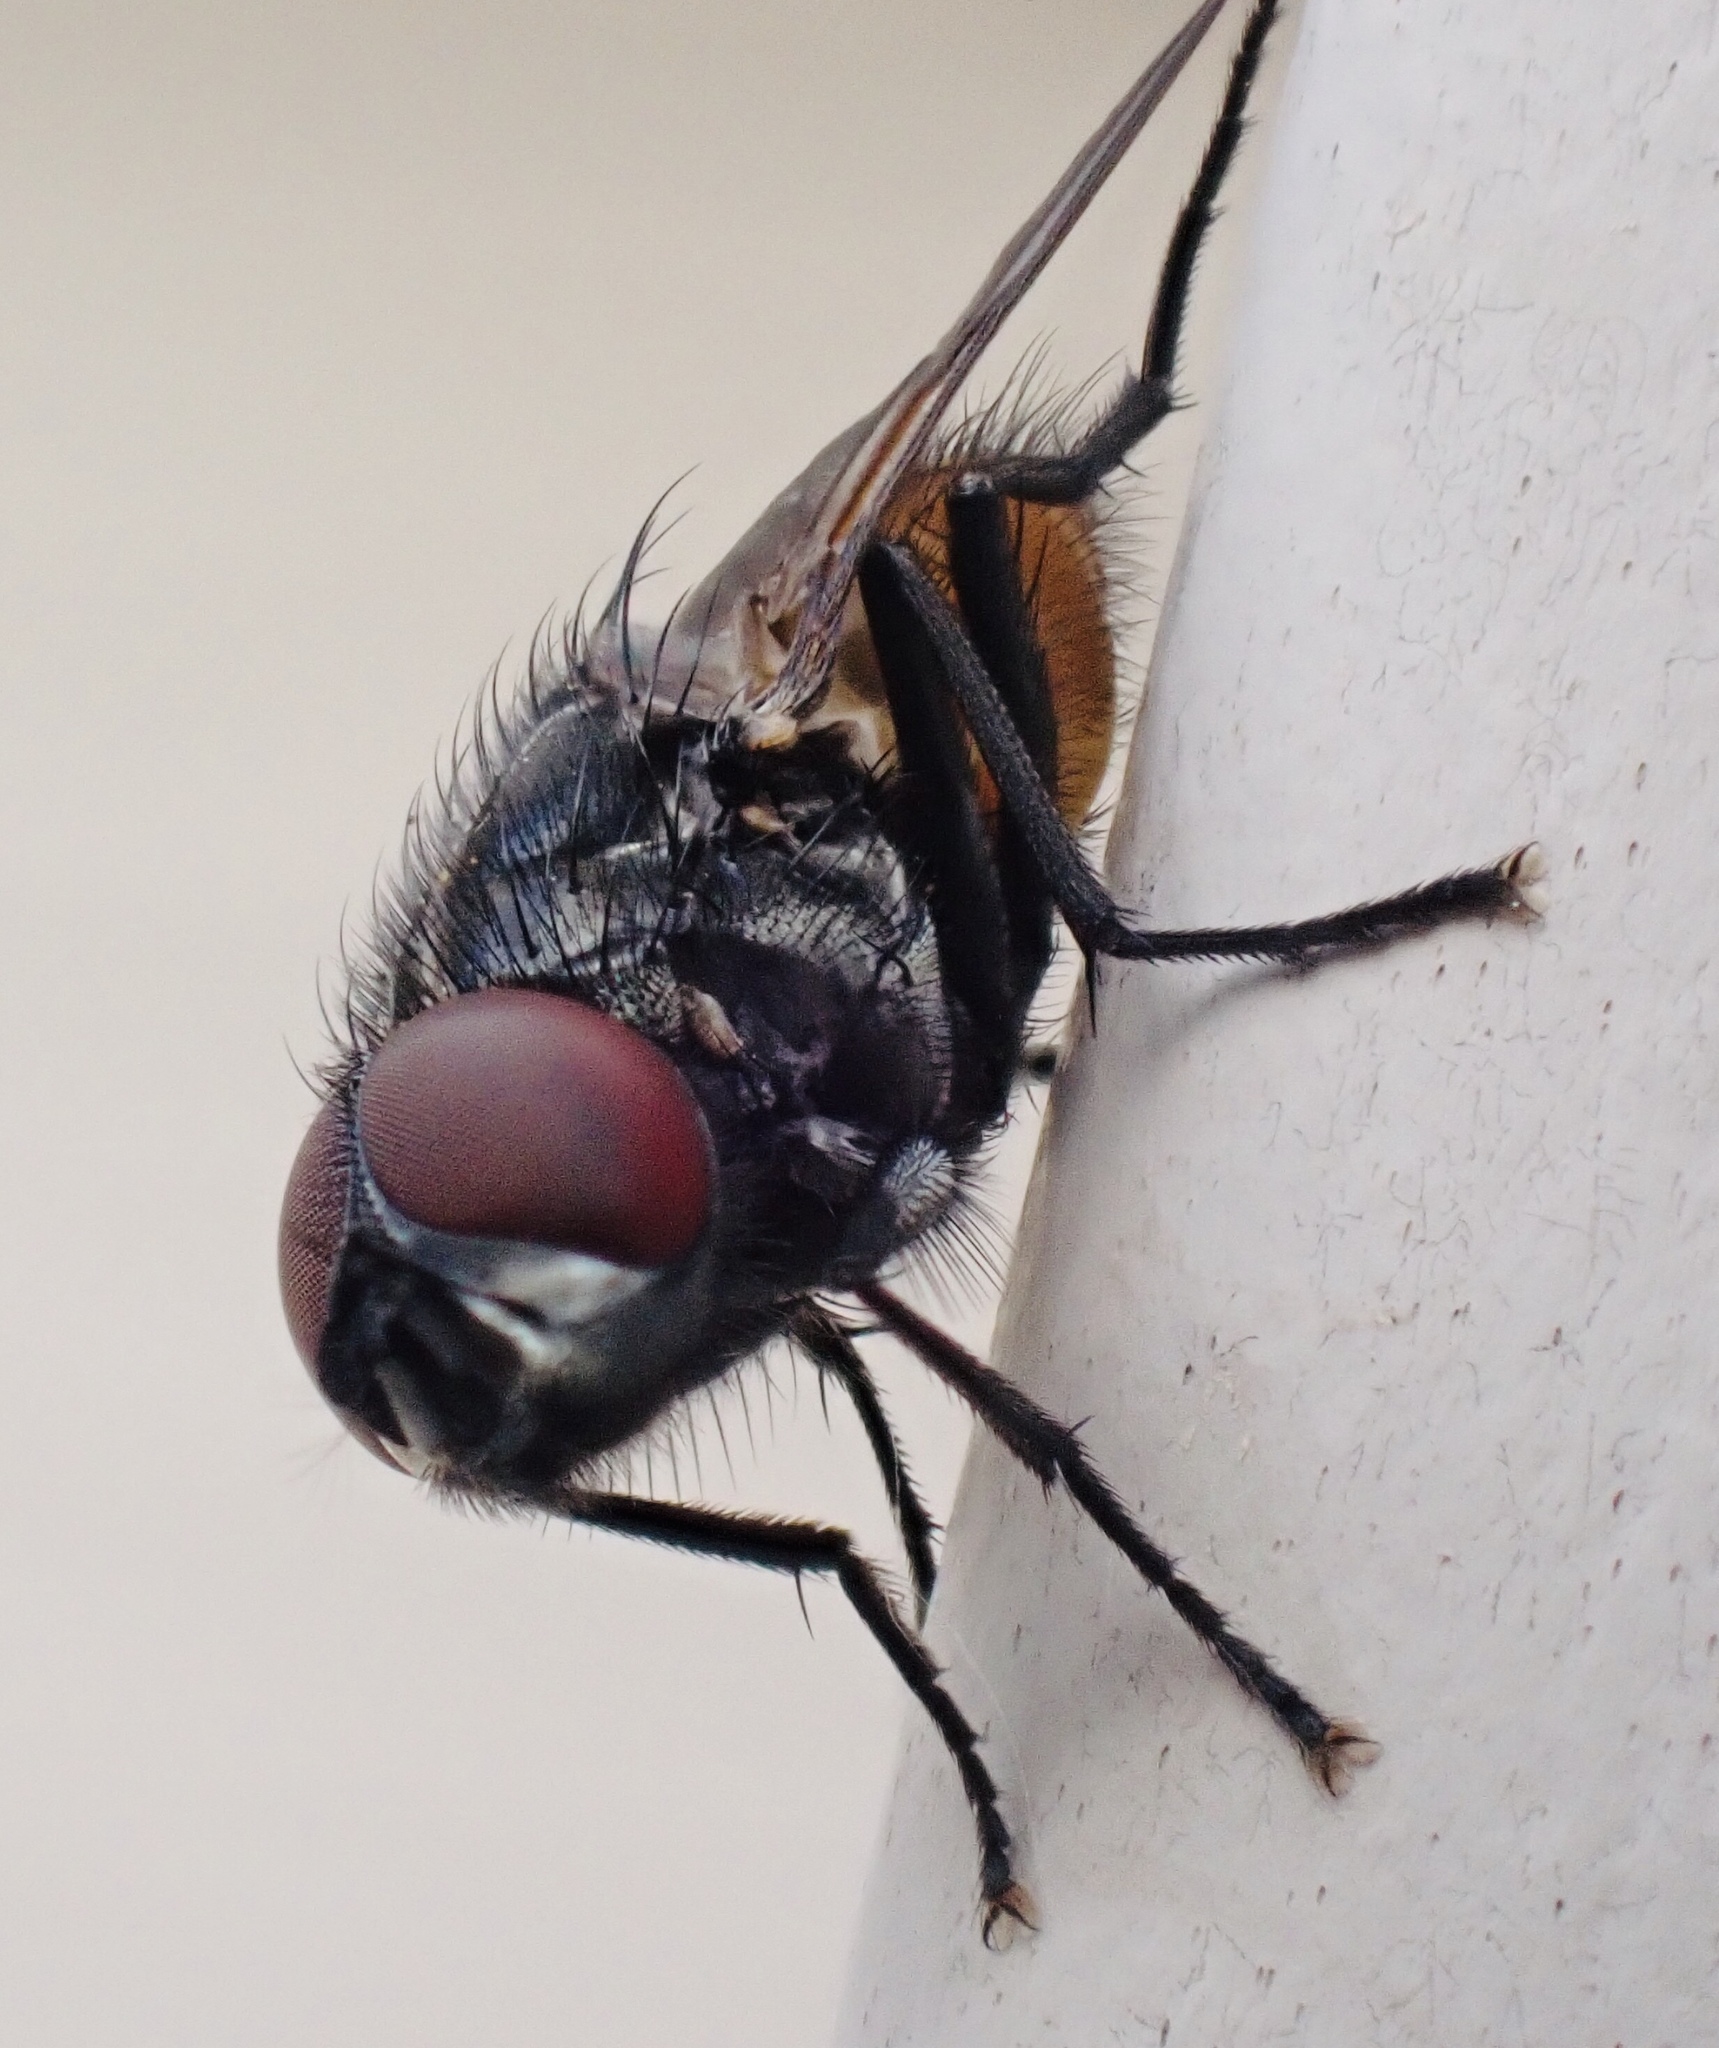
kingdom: Animalia
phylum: Arthropoda
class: Insecta
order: Diptera
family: Muscidae
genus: Musca
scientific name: Musca autumnalis
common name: Face fly
